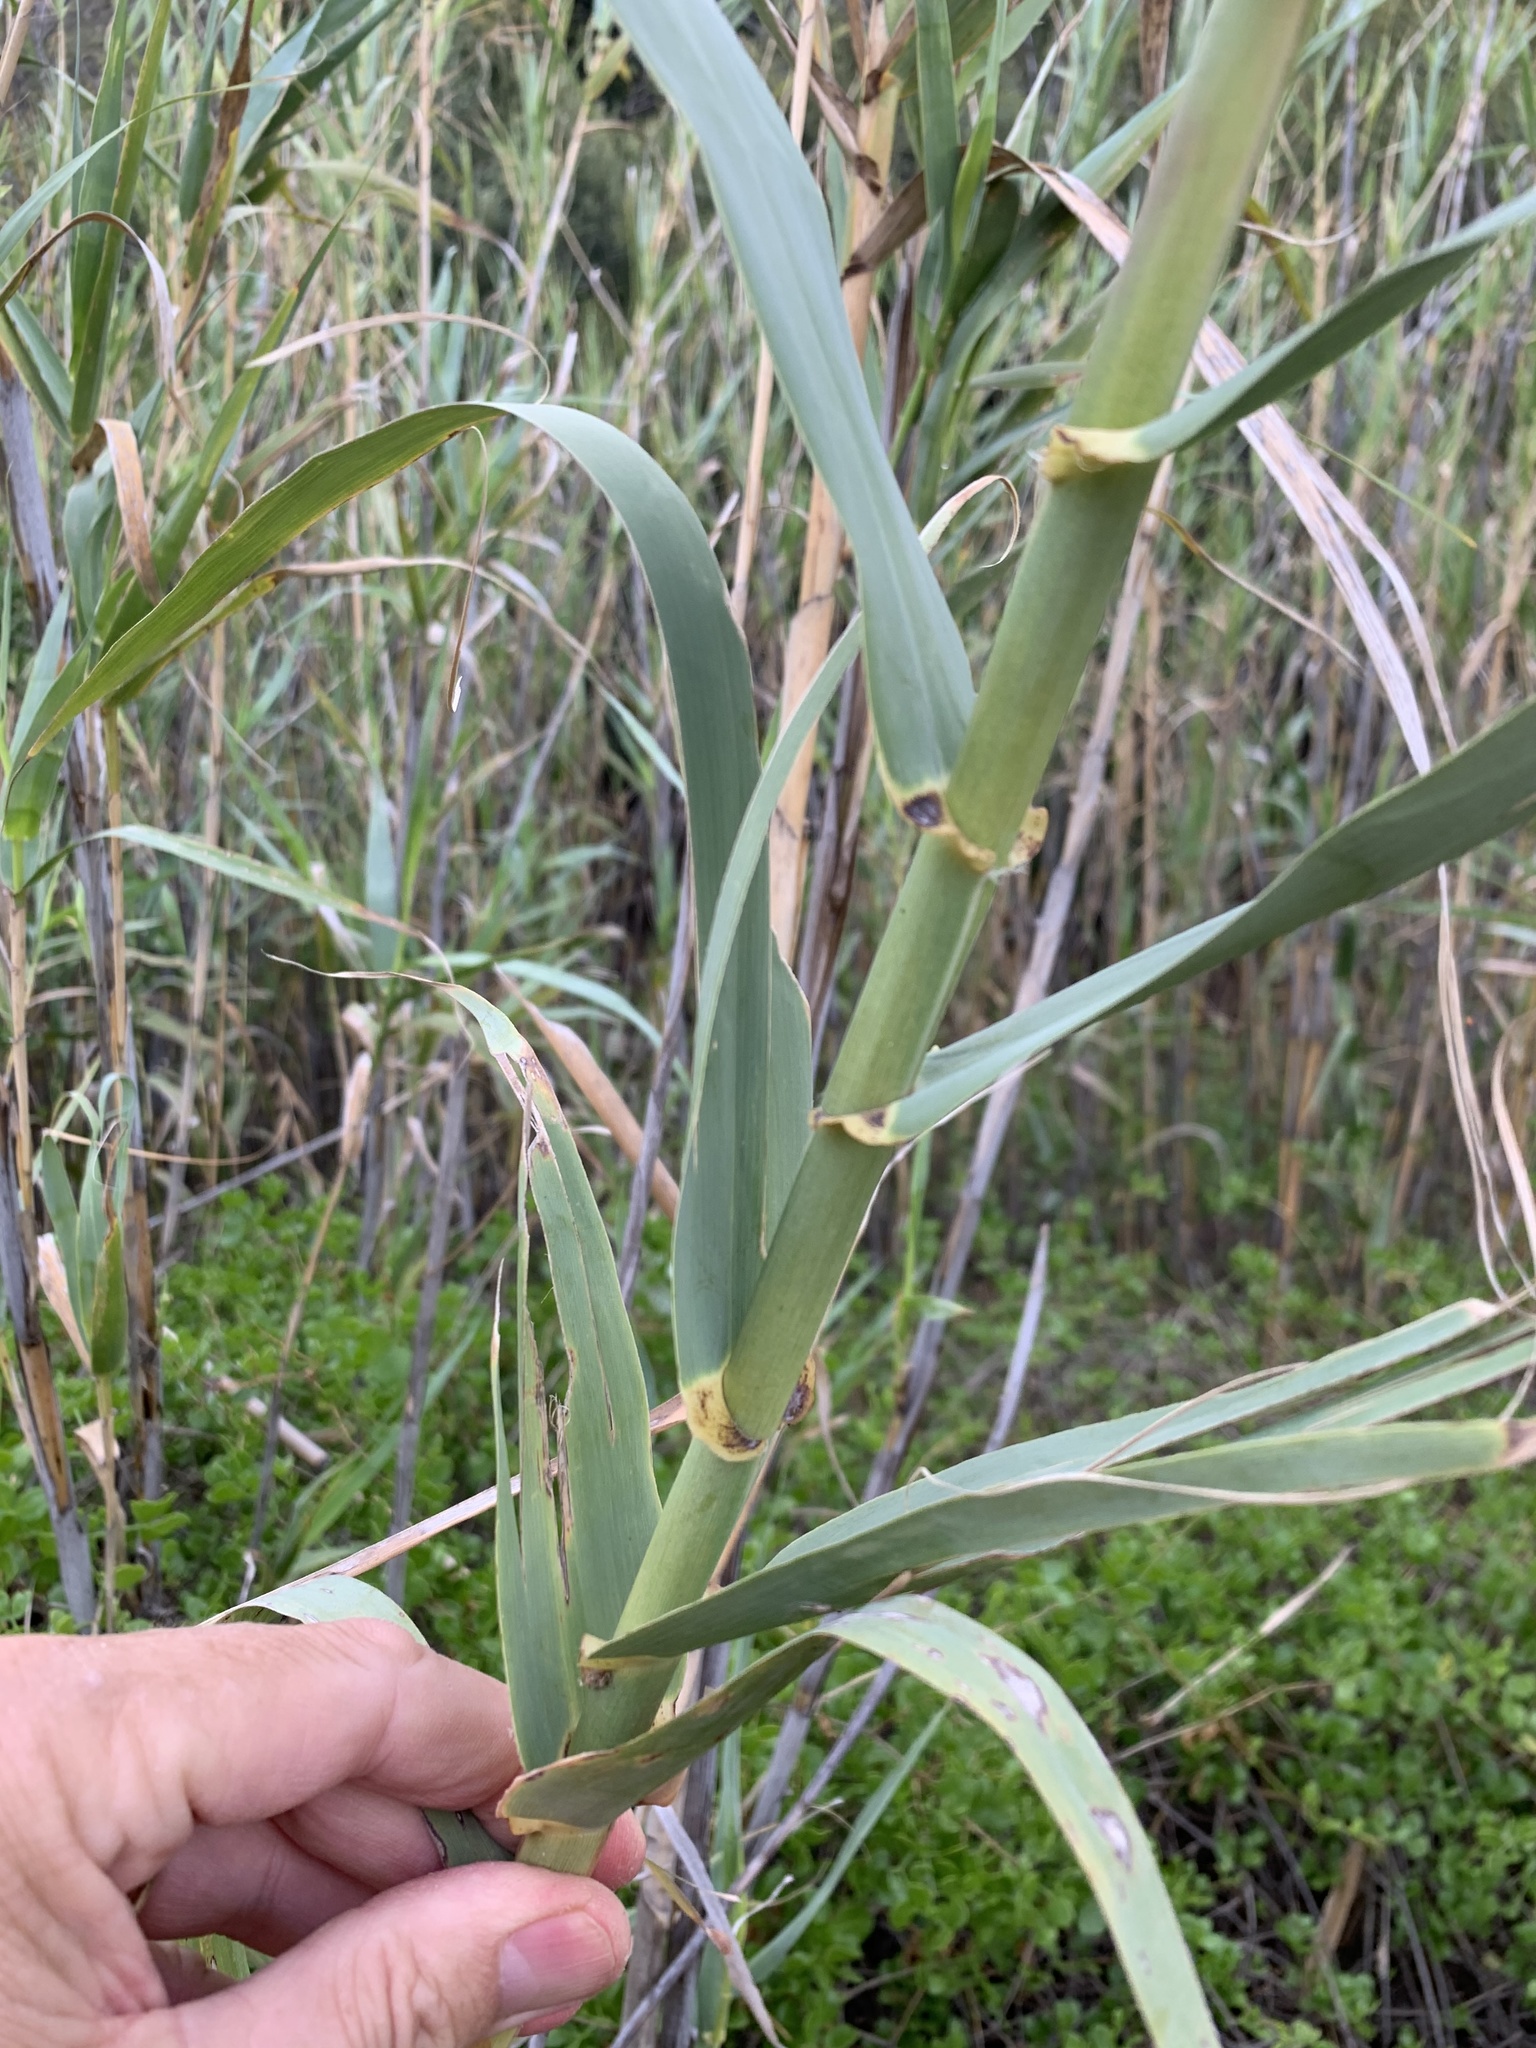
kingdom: Plantae
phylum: Tracheophyta
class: Liliopsida
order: Poales
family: Poaceae
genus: Arundo
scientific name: Arundo donax
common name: Giant reed
